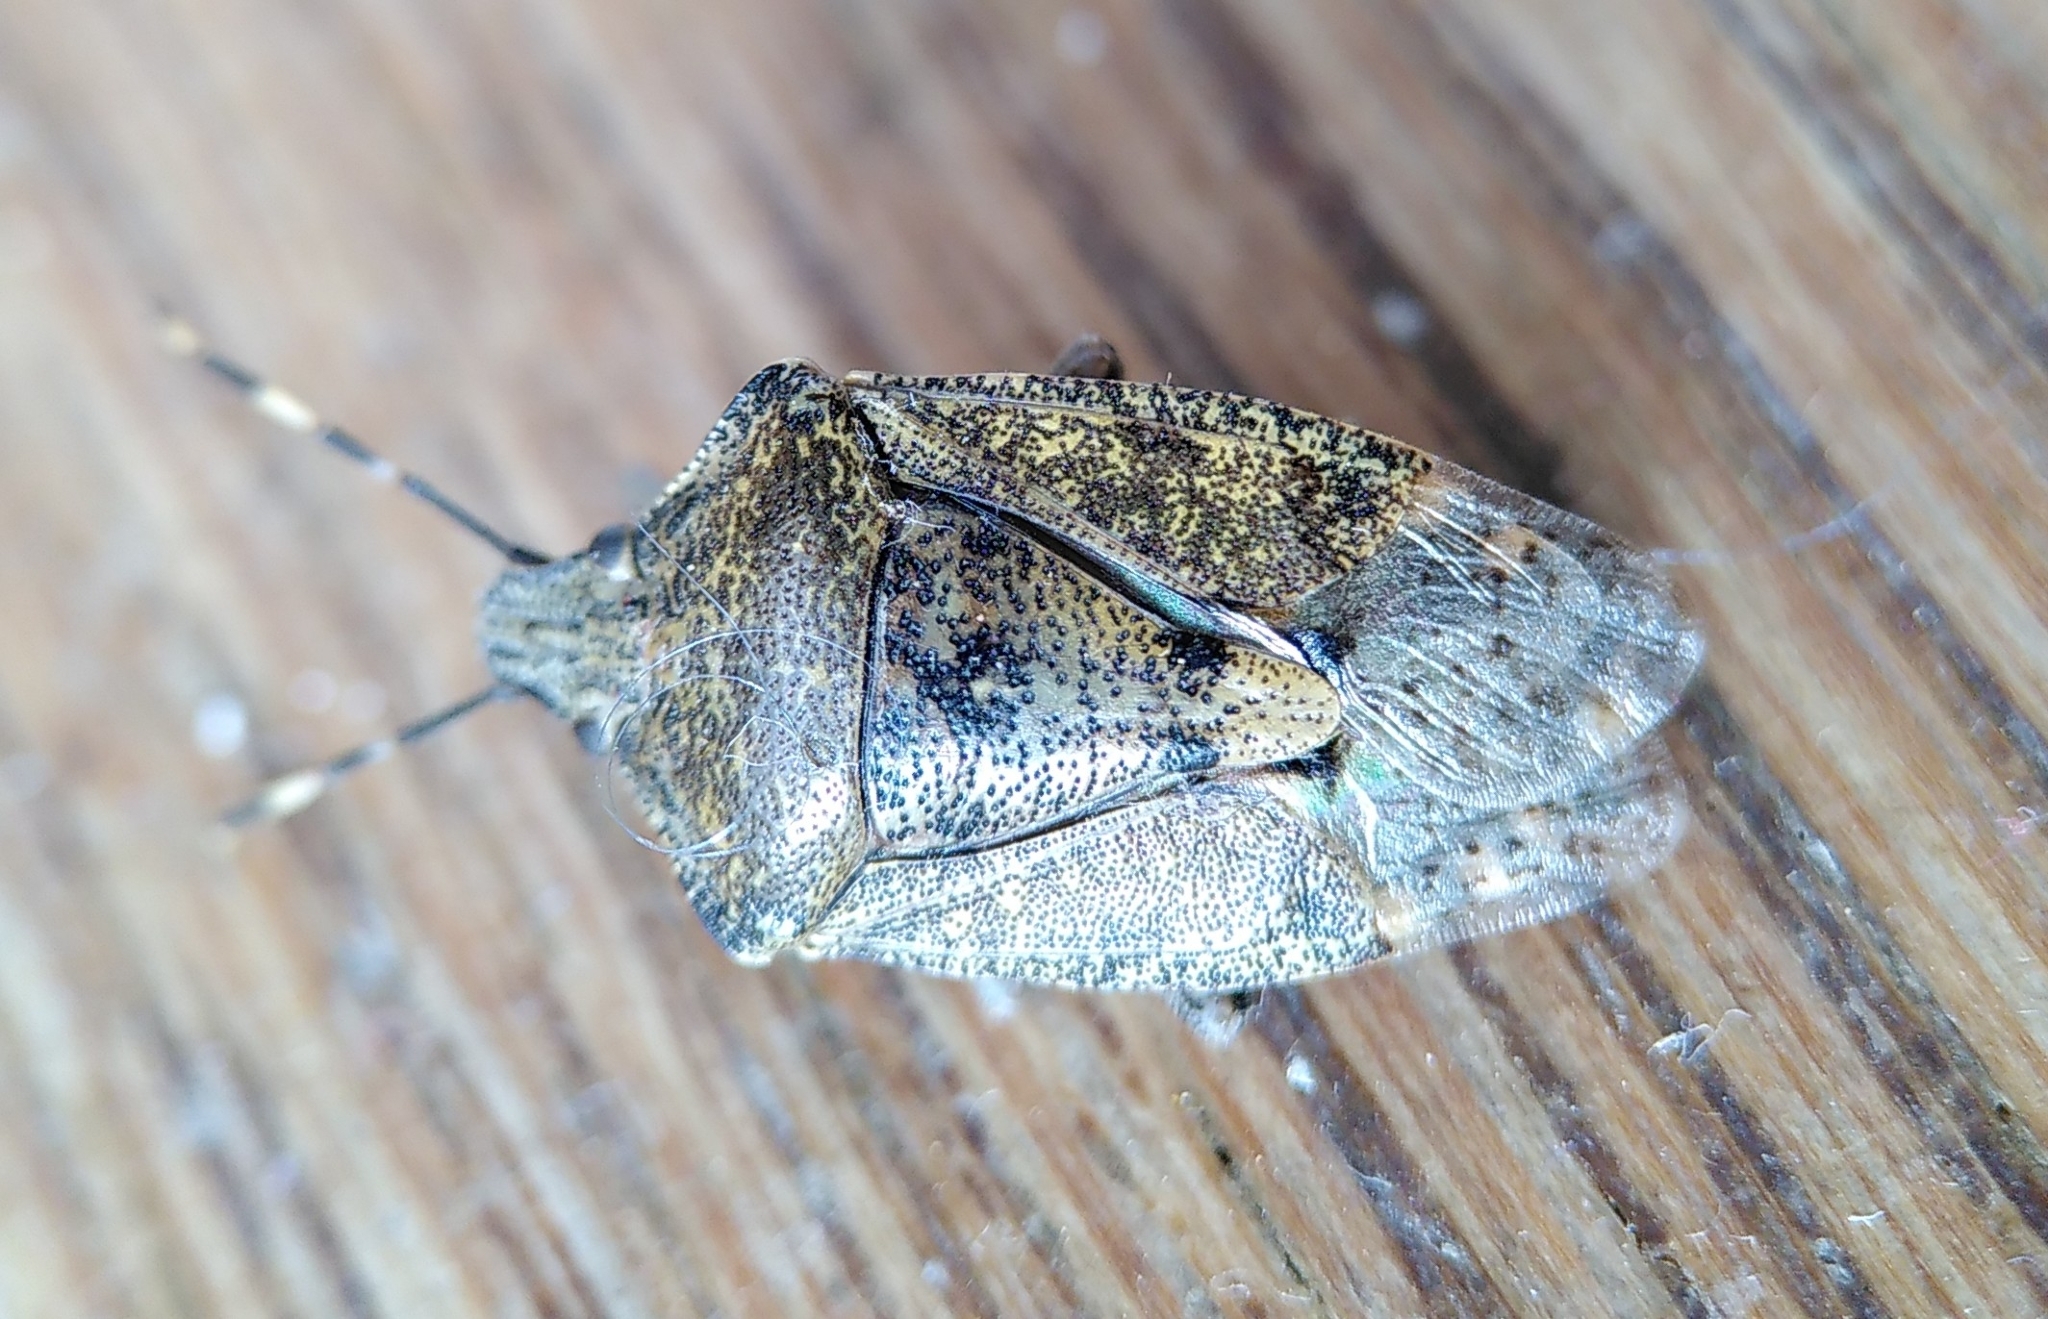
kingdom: Animalia
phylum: Arthropoda
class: Insecta
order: Hemiptera
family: Pentatomidae
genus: Rhaphigaster
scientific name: Rhaphigaster nebulosa
